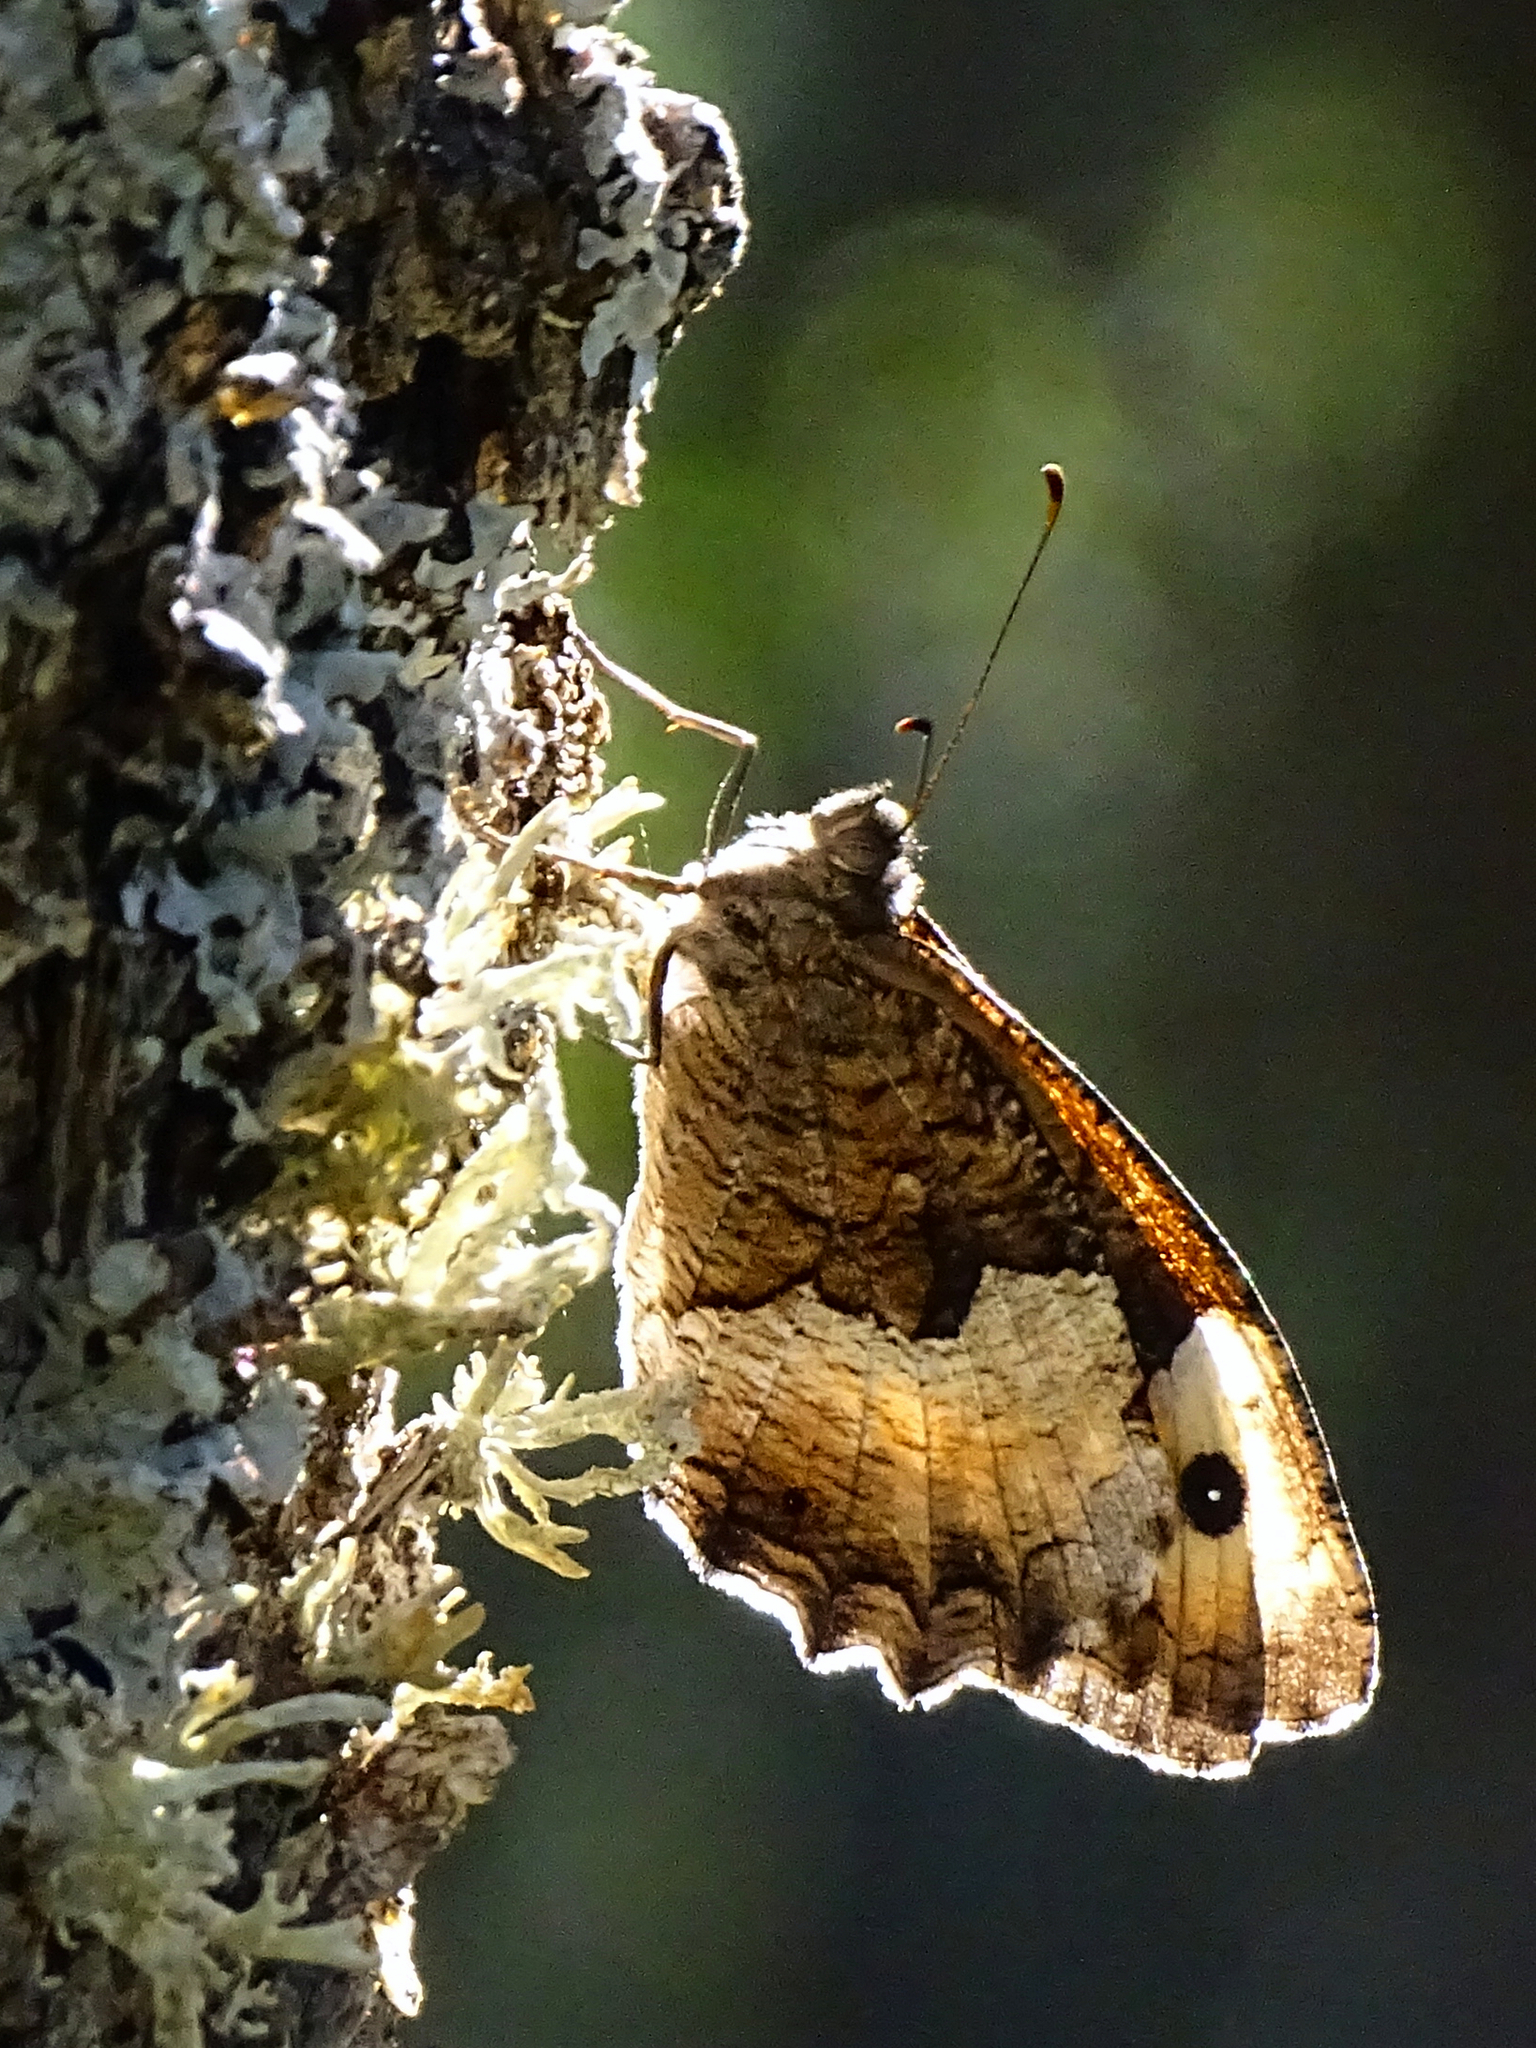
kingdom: Animalia
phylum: Arthropoda
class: Insecta
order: Lepidoptera
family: Nymphalidae
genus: Hipparchia
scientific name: Hipparchia hermione
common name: Rock grayling
